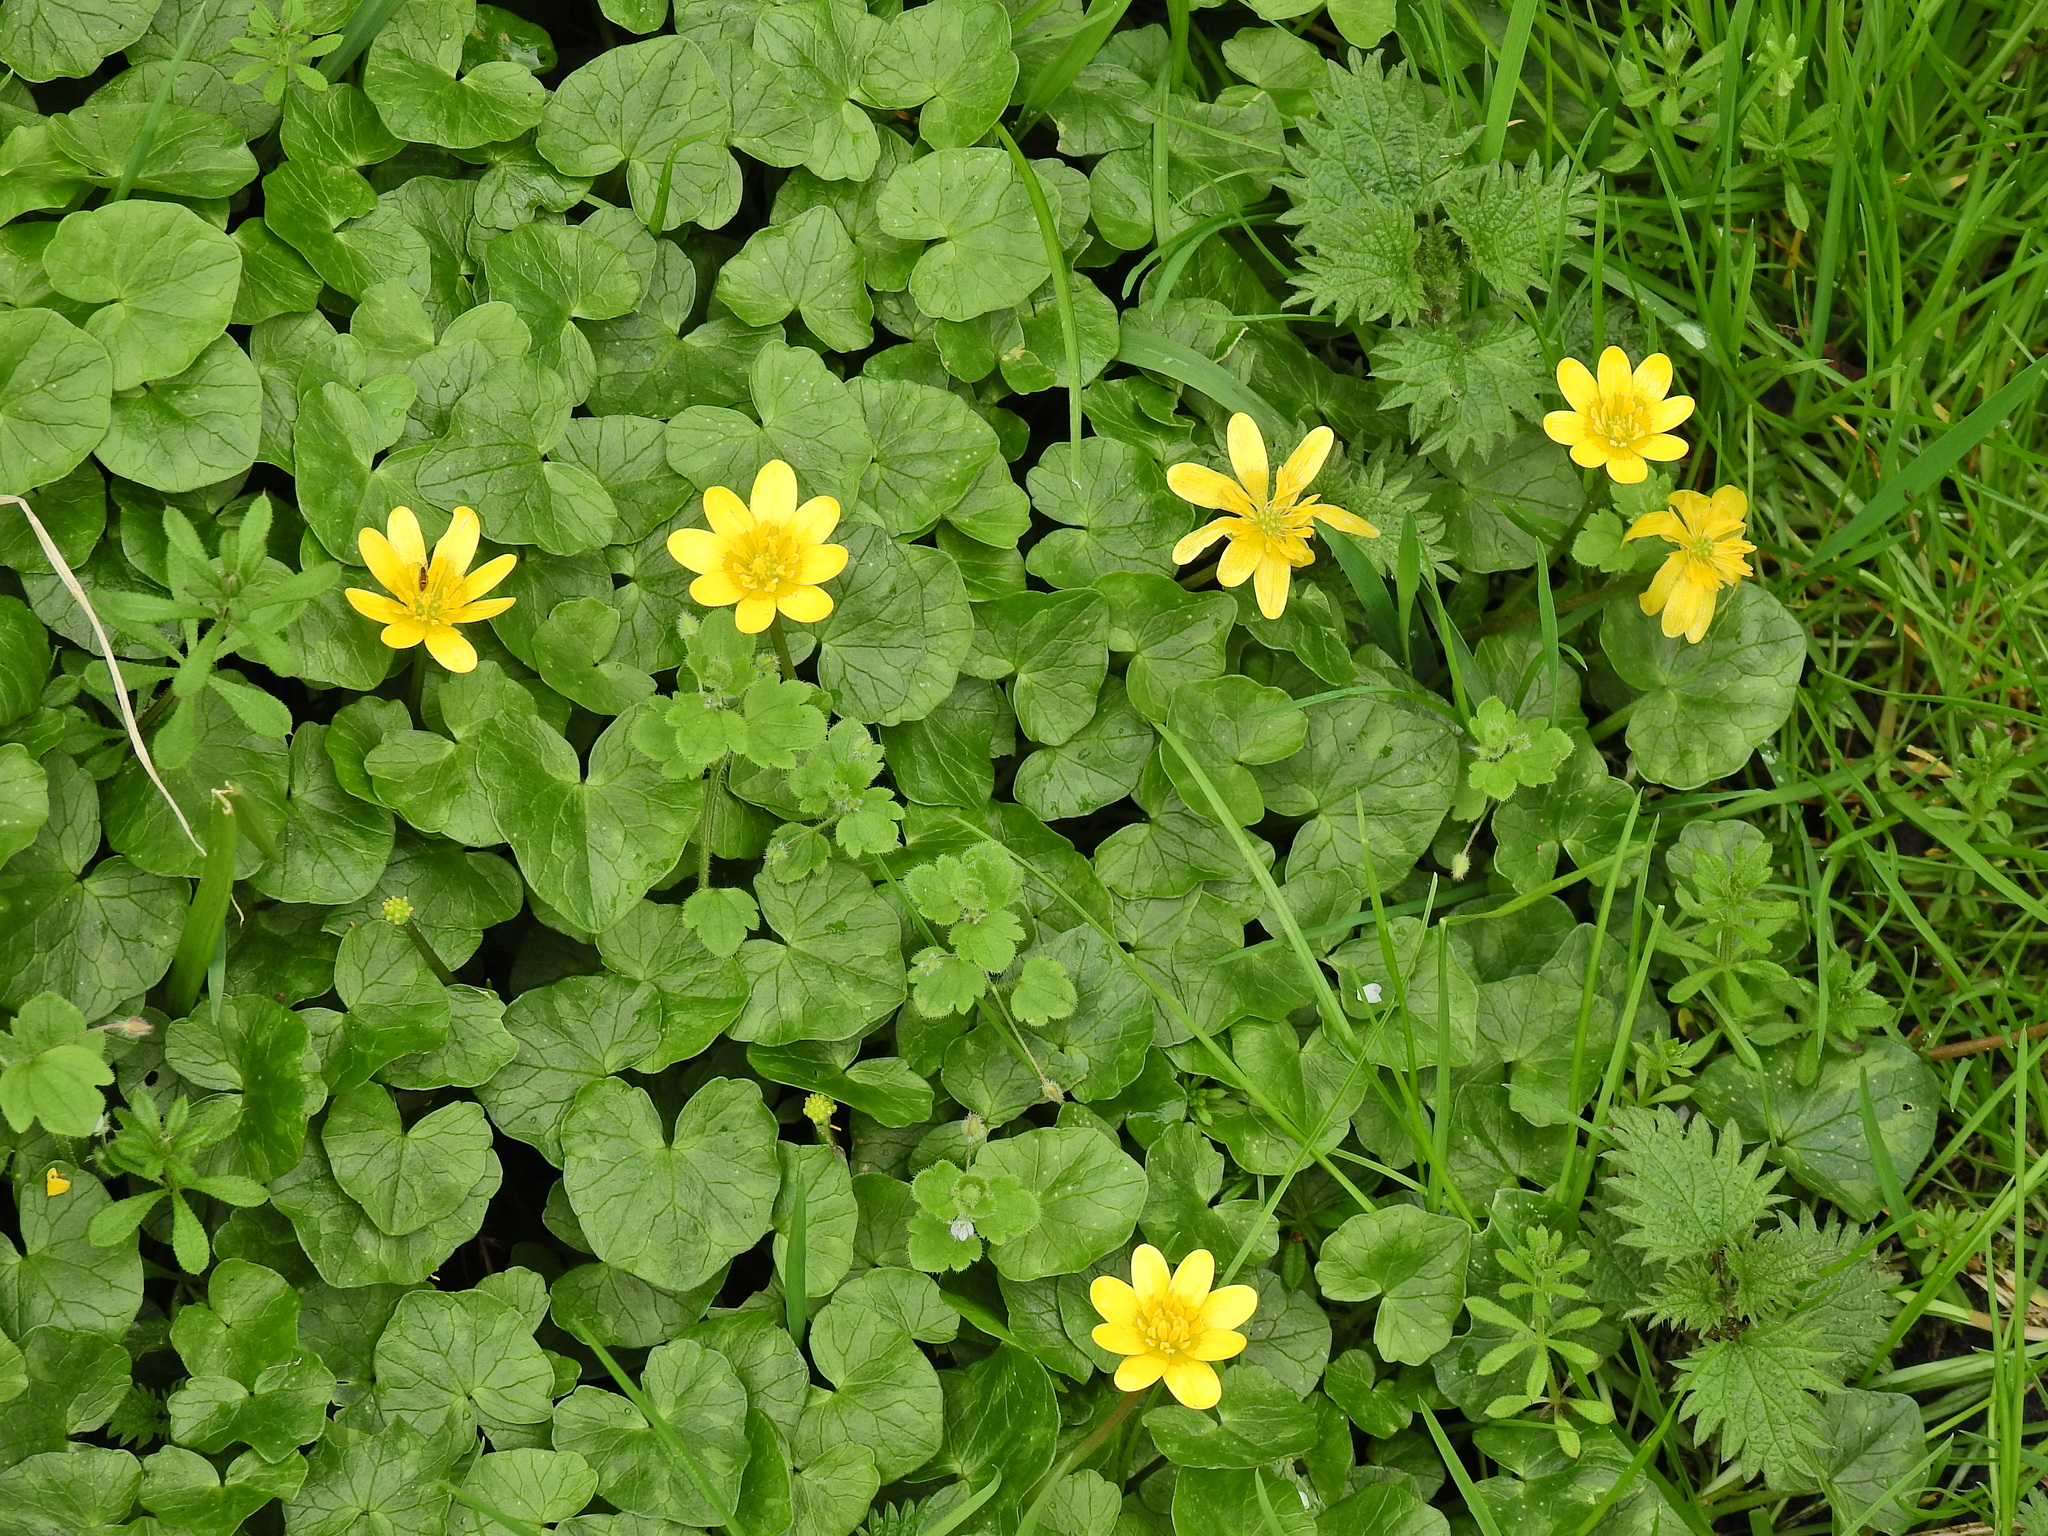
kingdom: Plantae
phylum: Tracheophyta
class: Magnoliopsida
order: Ranunculales
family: Ranunculaceae
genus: Ficaria
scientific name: Ficaria verna
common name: Lesser celandine
